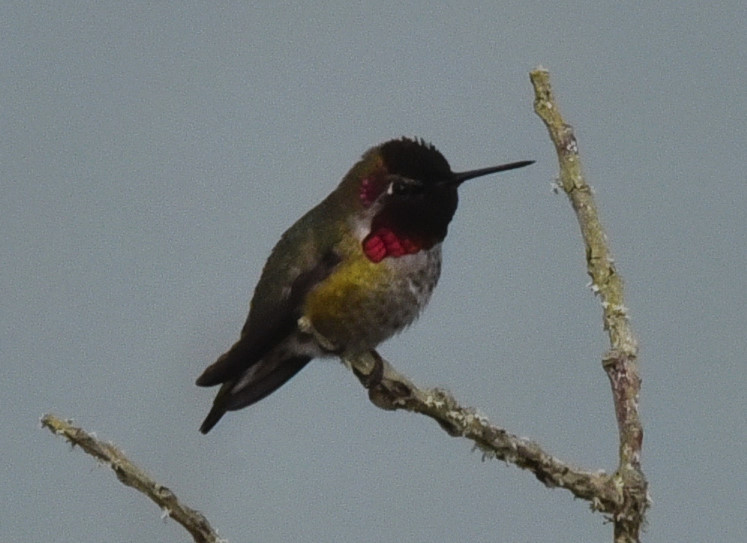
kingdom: Animalia
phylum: Chordata
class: Aves
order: Apodiformes
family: Trochilidae
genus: Calypte
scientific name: Calypte anna
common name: Anna's hummingbird
